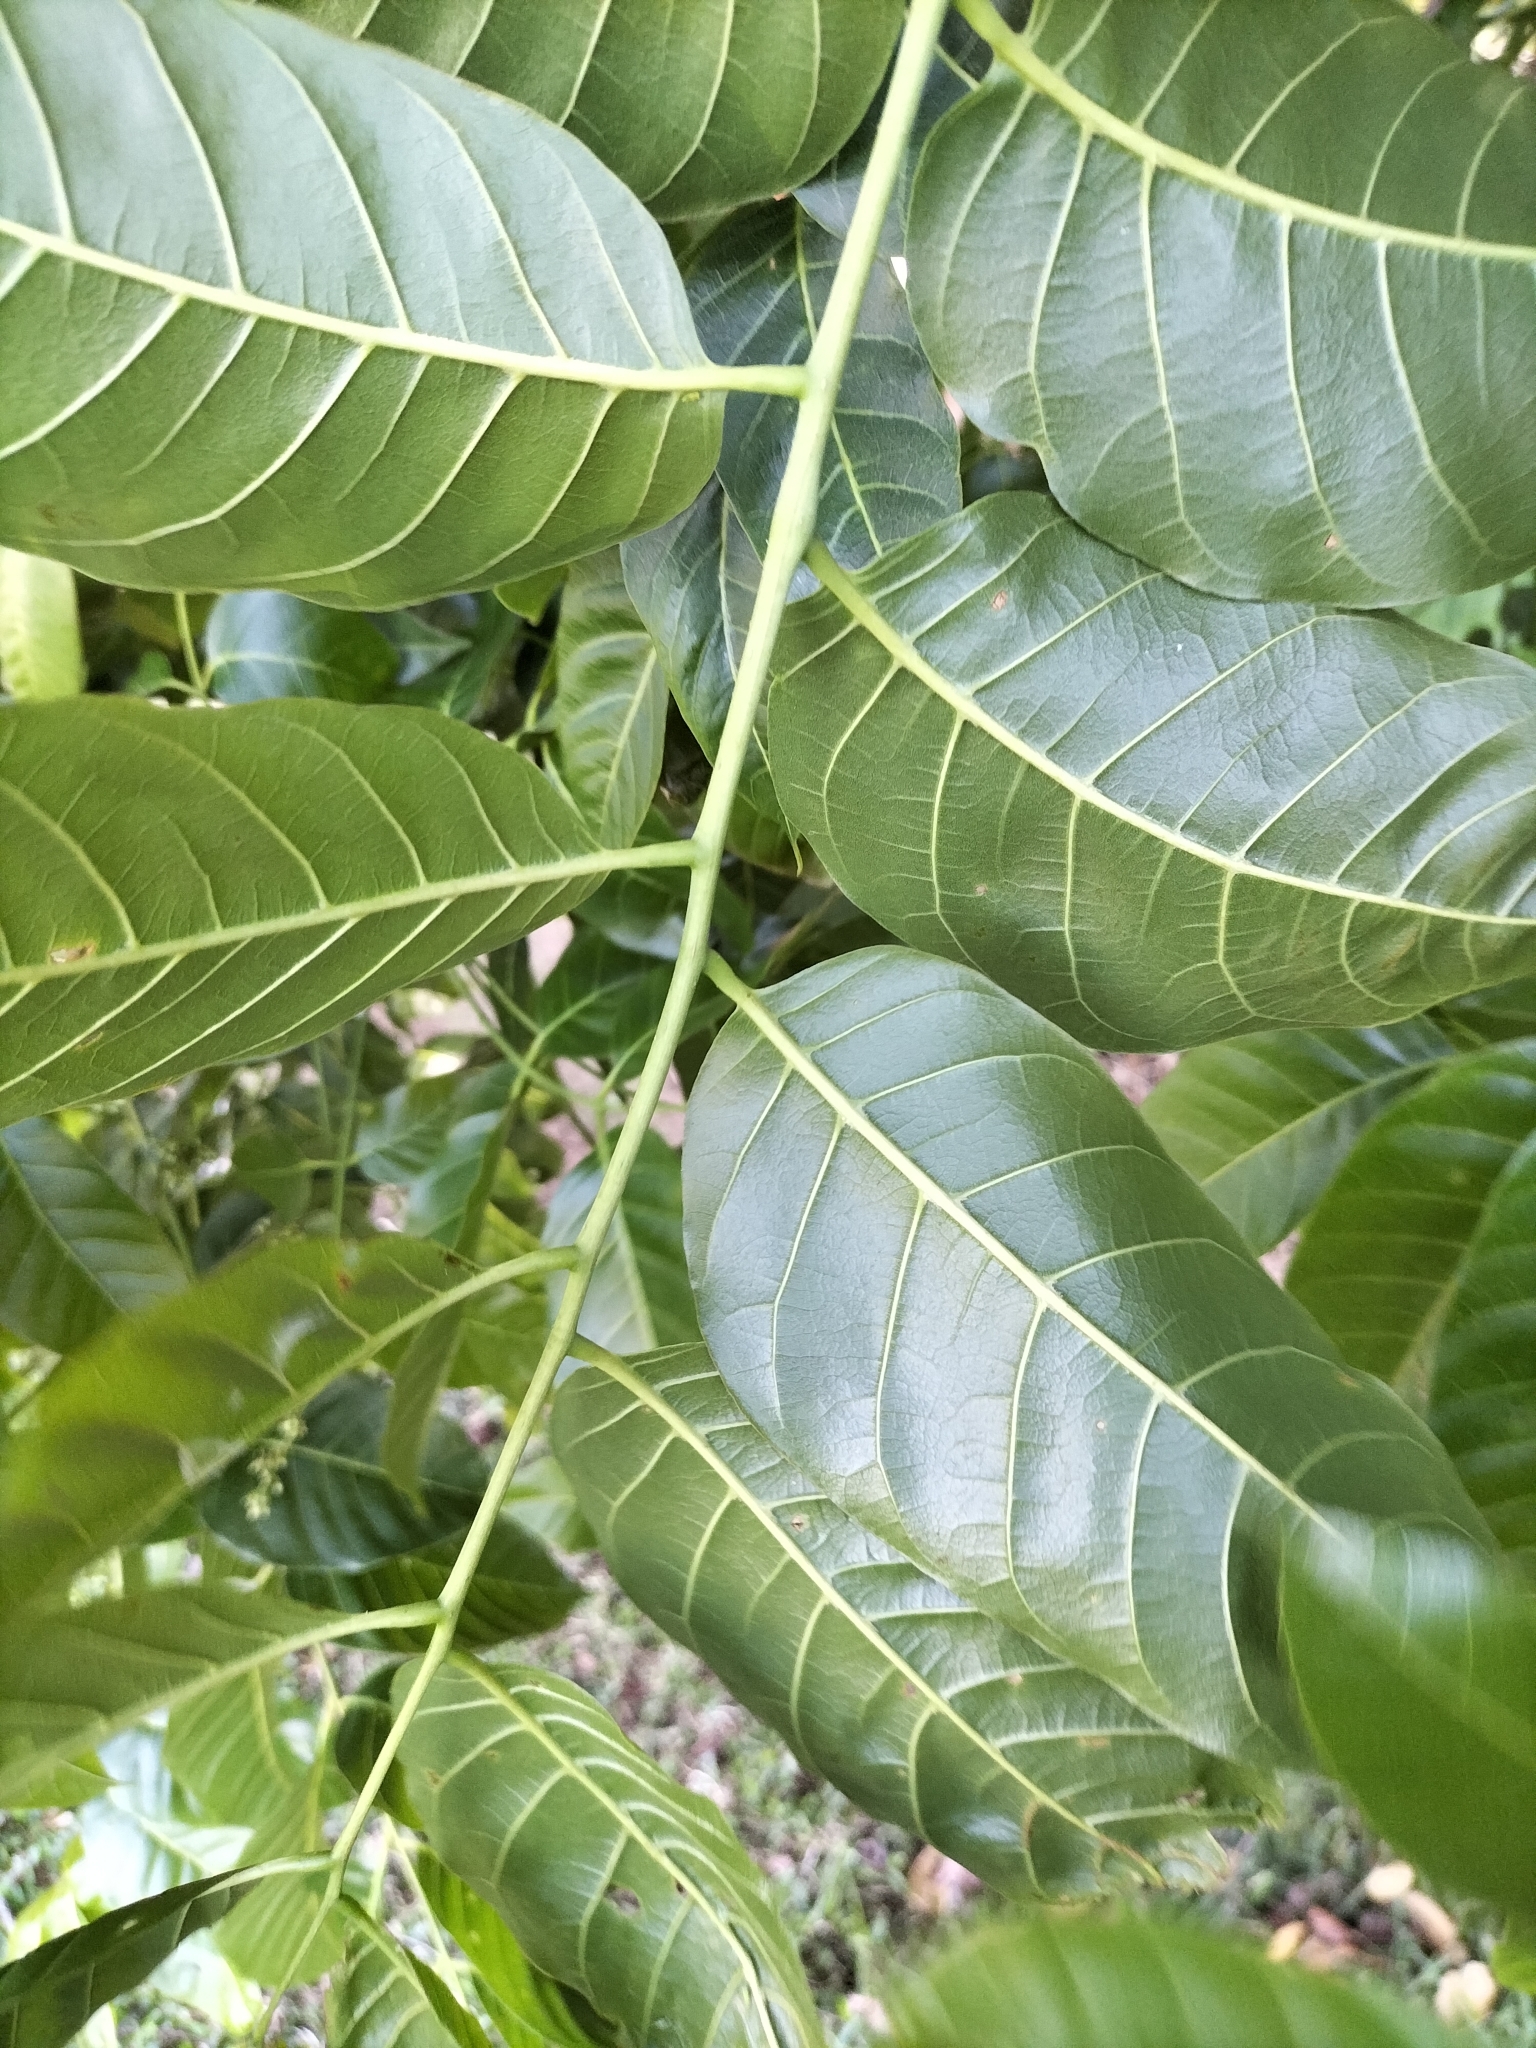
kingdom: Plantae
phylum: Tracheophyta
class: Magnoliopsida
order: Sapindales
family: Meliaceae
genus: Toona
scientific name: Toona ciliata
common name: Australian redcedar
